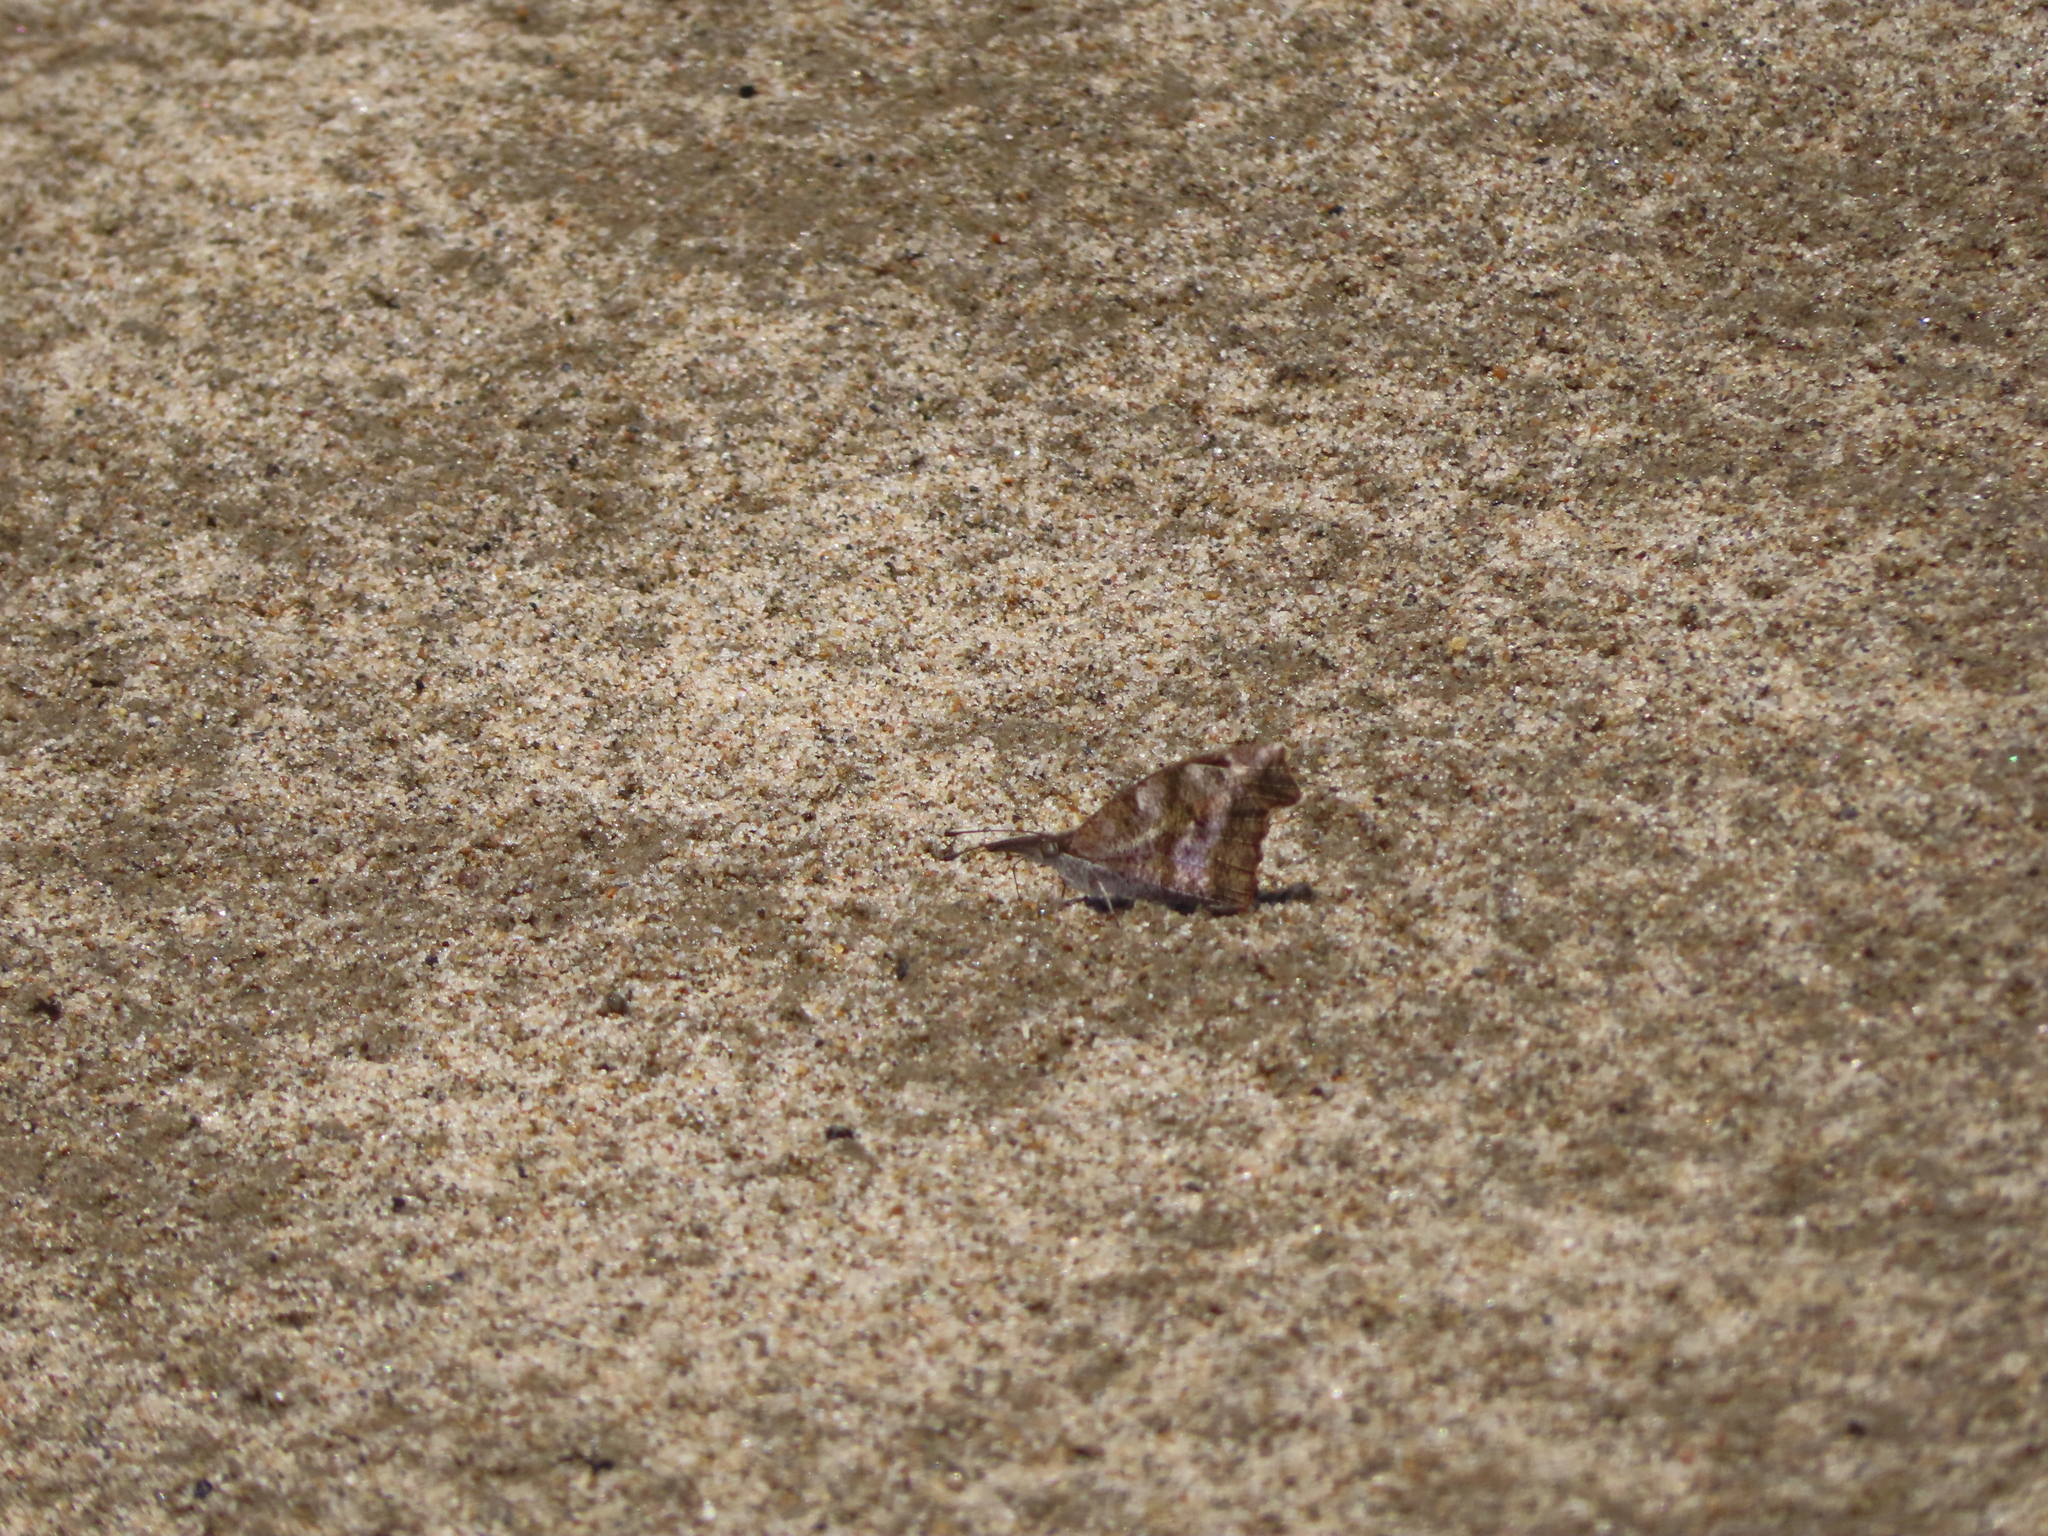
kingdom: Animalia
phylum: Arthropoda
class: Insecta
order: Lepidoptera
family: Nymphalidae
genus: Libytheana
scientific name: Libytheana carinenta
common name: American snout
